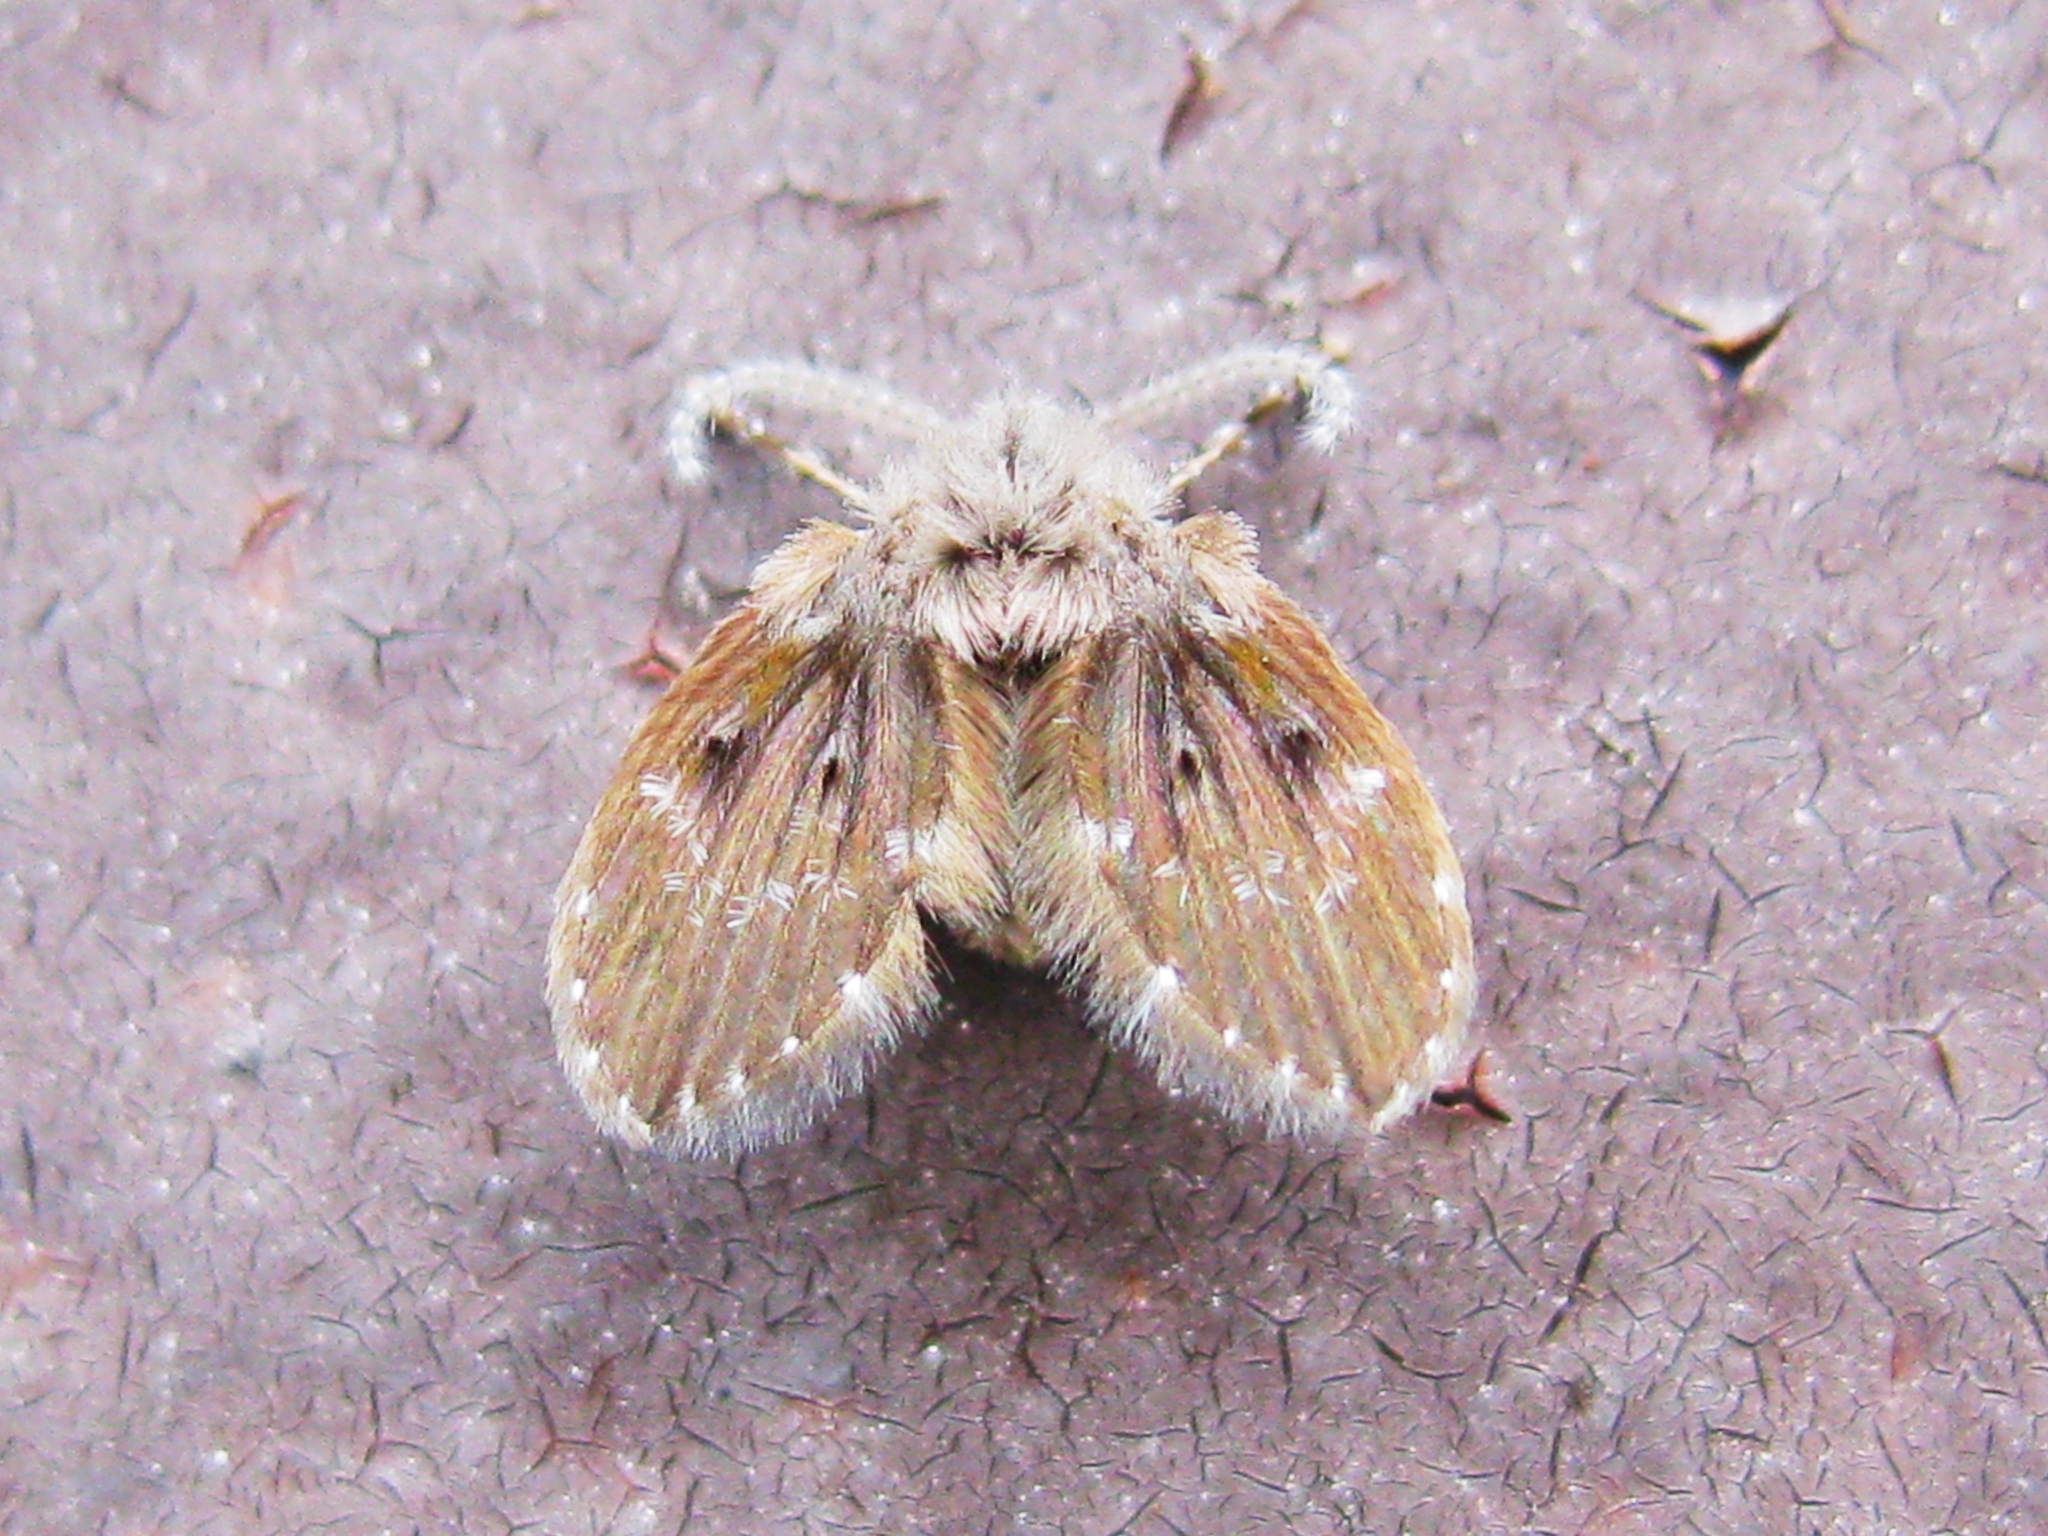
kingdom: Animalia
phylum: Arthropoda
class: Insecta
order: Diptera
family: Psychodidae
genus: Clogmia
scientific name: Clogmia albipunctatus
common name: White-spotted moth fly
